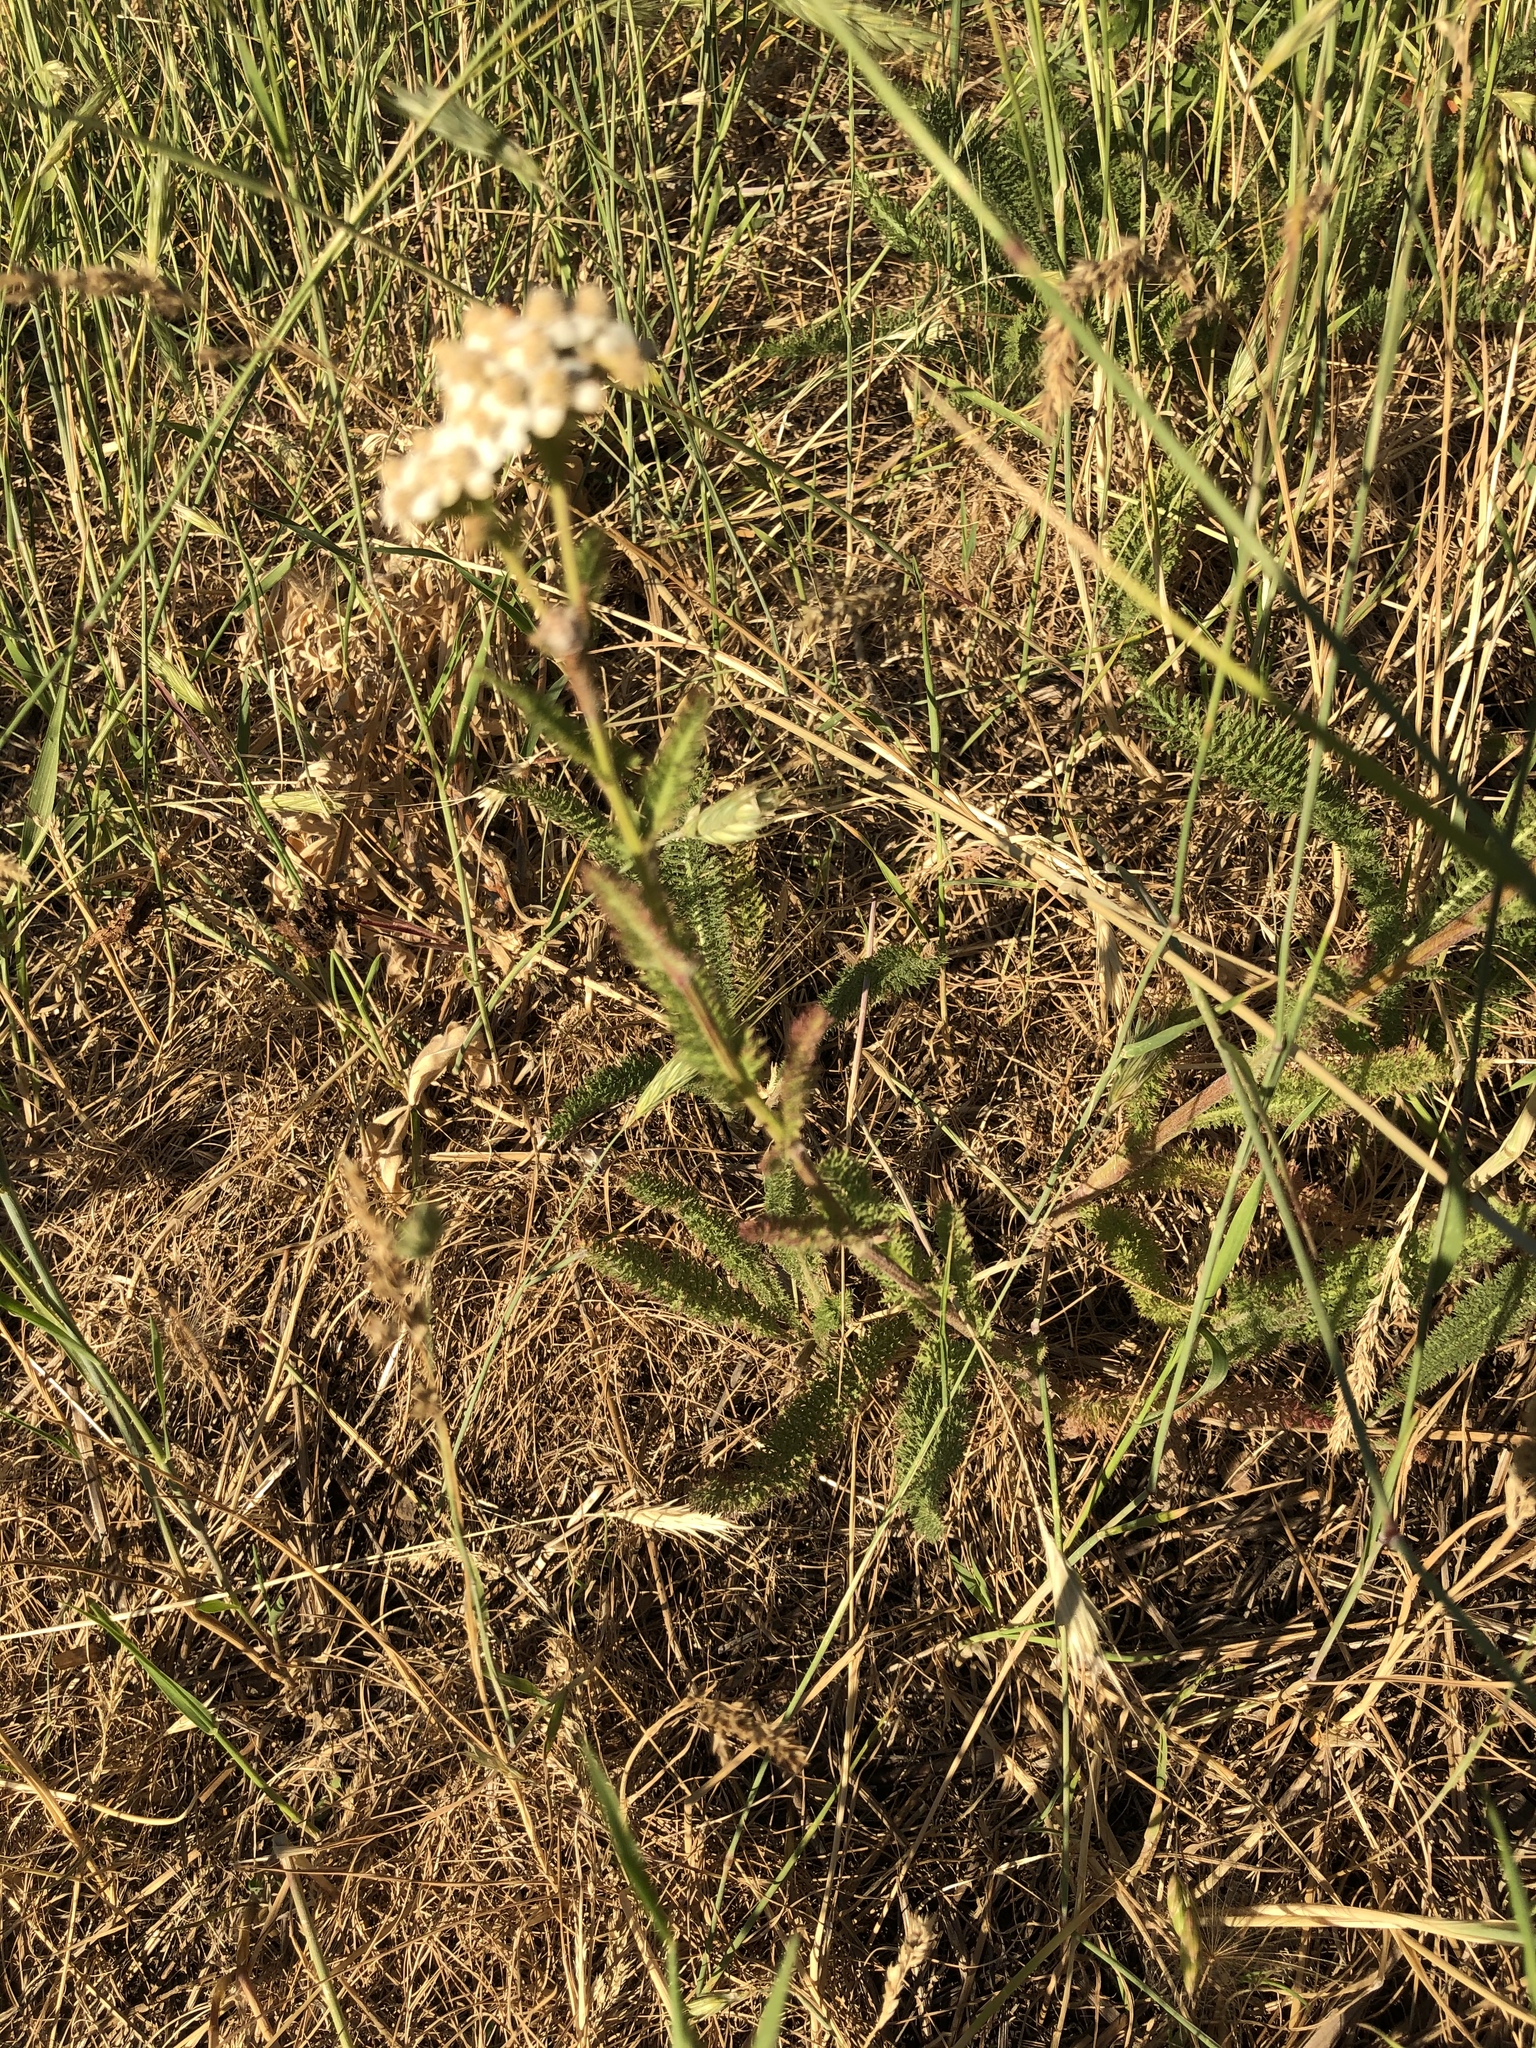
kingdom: Plantae
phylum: Tracheophyta
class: Magnoliopsida
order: Asterales
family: Asteraceae
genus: Achillea
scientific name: Achillea millefolium
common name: Yarrow
